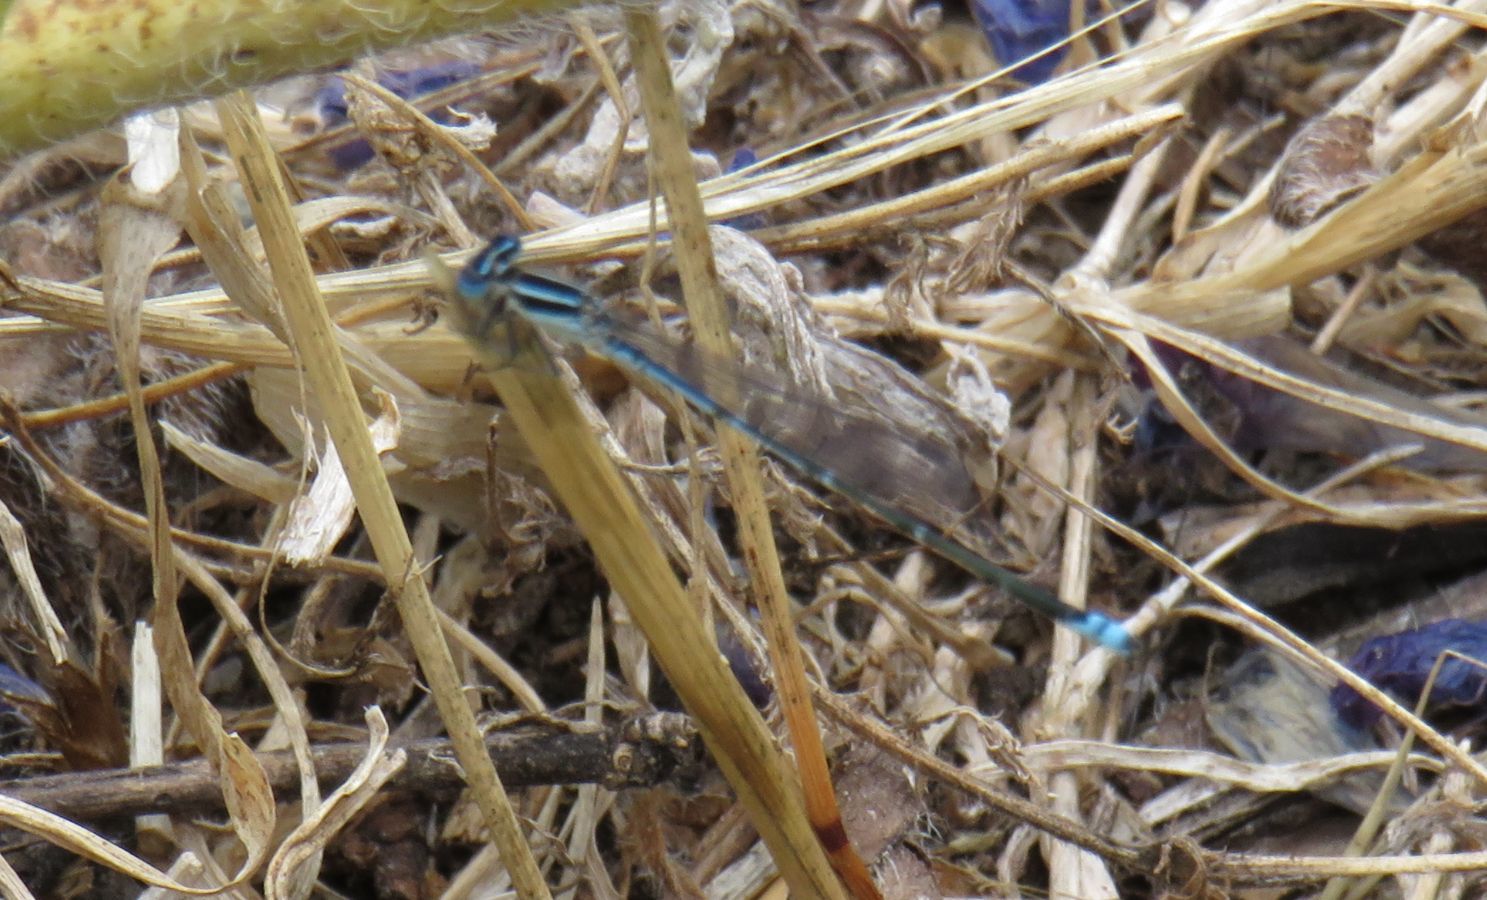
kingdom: Animalia
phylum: Arthropoda
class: Insecta
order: Odonata
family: Coenagrionidae
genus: Azuragrion
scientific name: Azuragrion nigridorsum
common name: Sailing azuret
